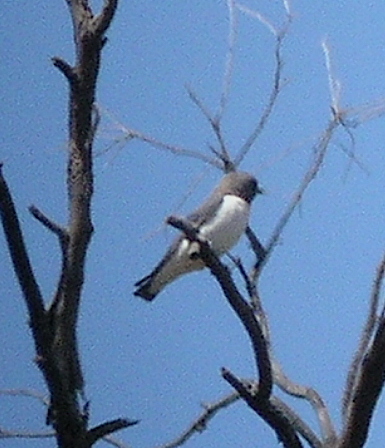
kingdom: Animalia
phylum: Chordata
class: Aves
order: Passeriformes
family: Artamidae
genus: Artamus
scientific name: Artamus leucoryn
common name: White-breasted woodswallow
